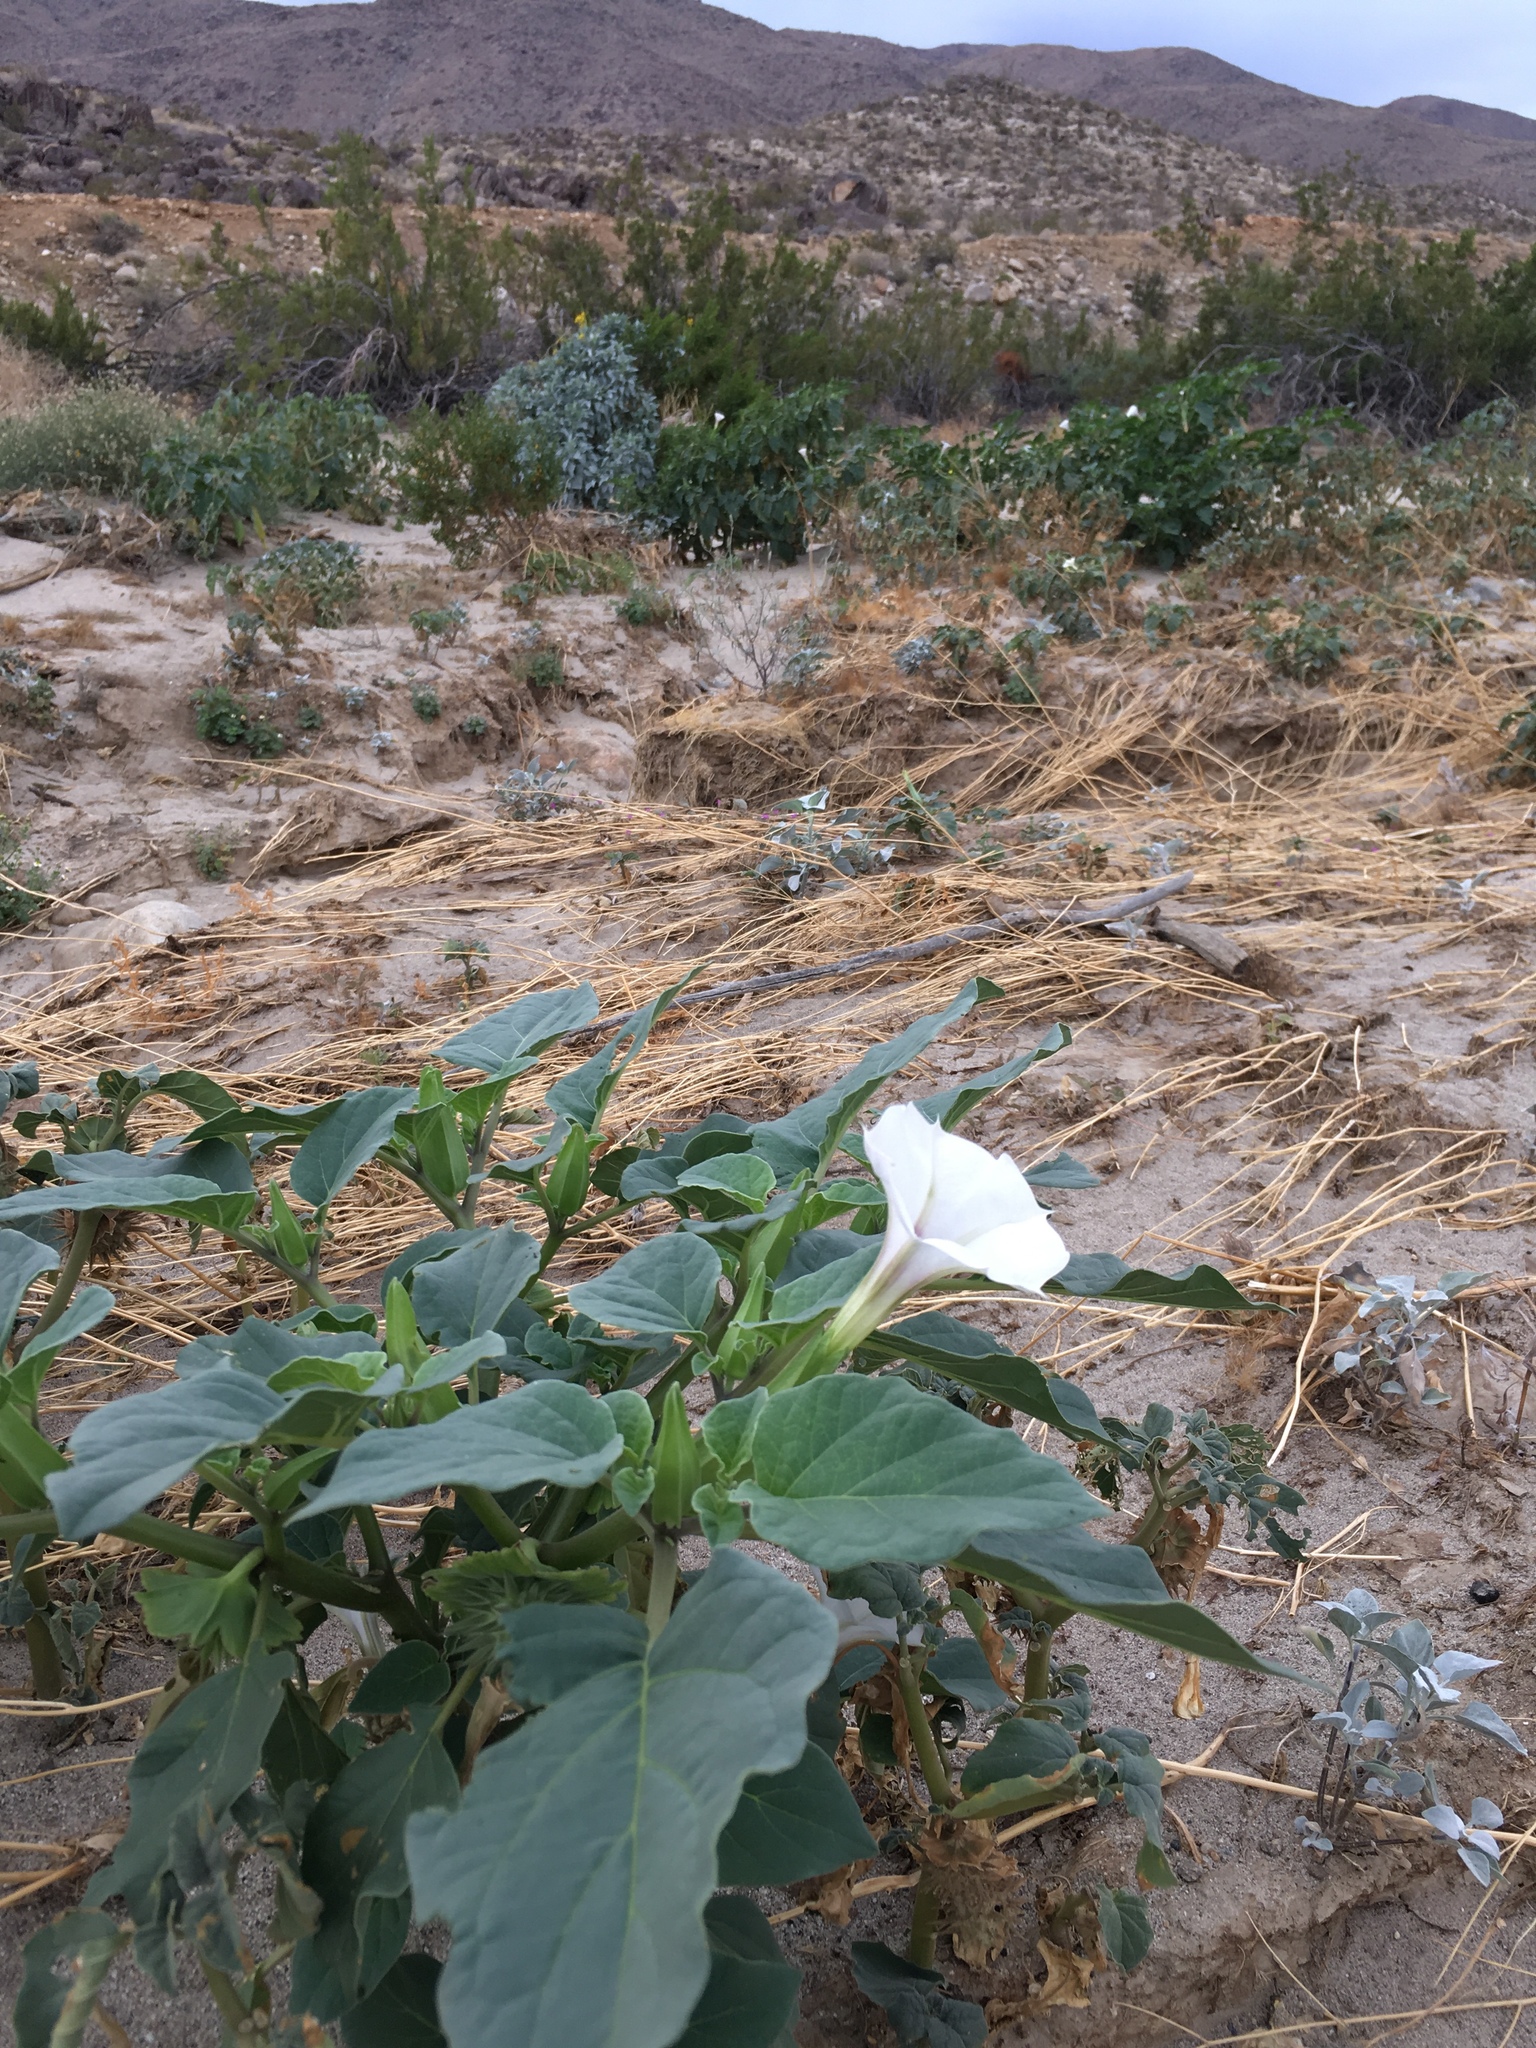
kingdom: Plantae
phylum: Tracheophyta
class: Magnoliopsida
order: Solanales
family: Solanaceae
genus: Datura
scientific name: Datura discolor
